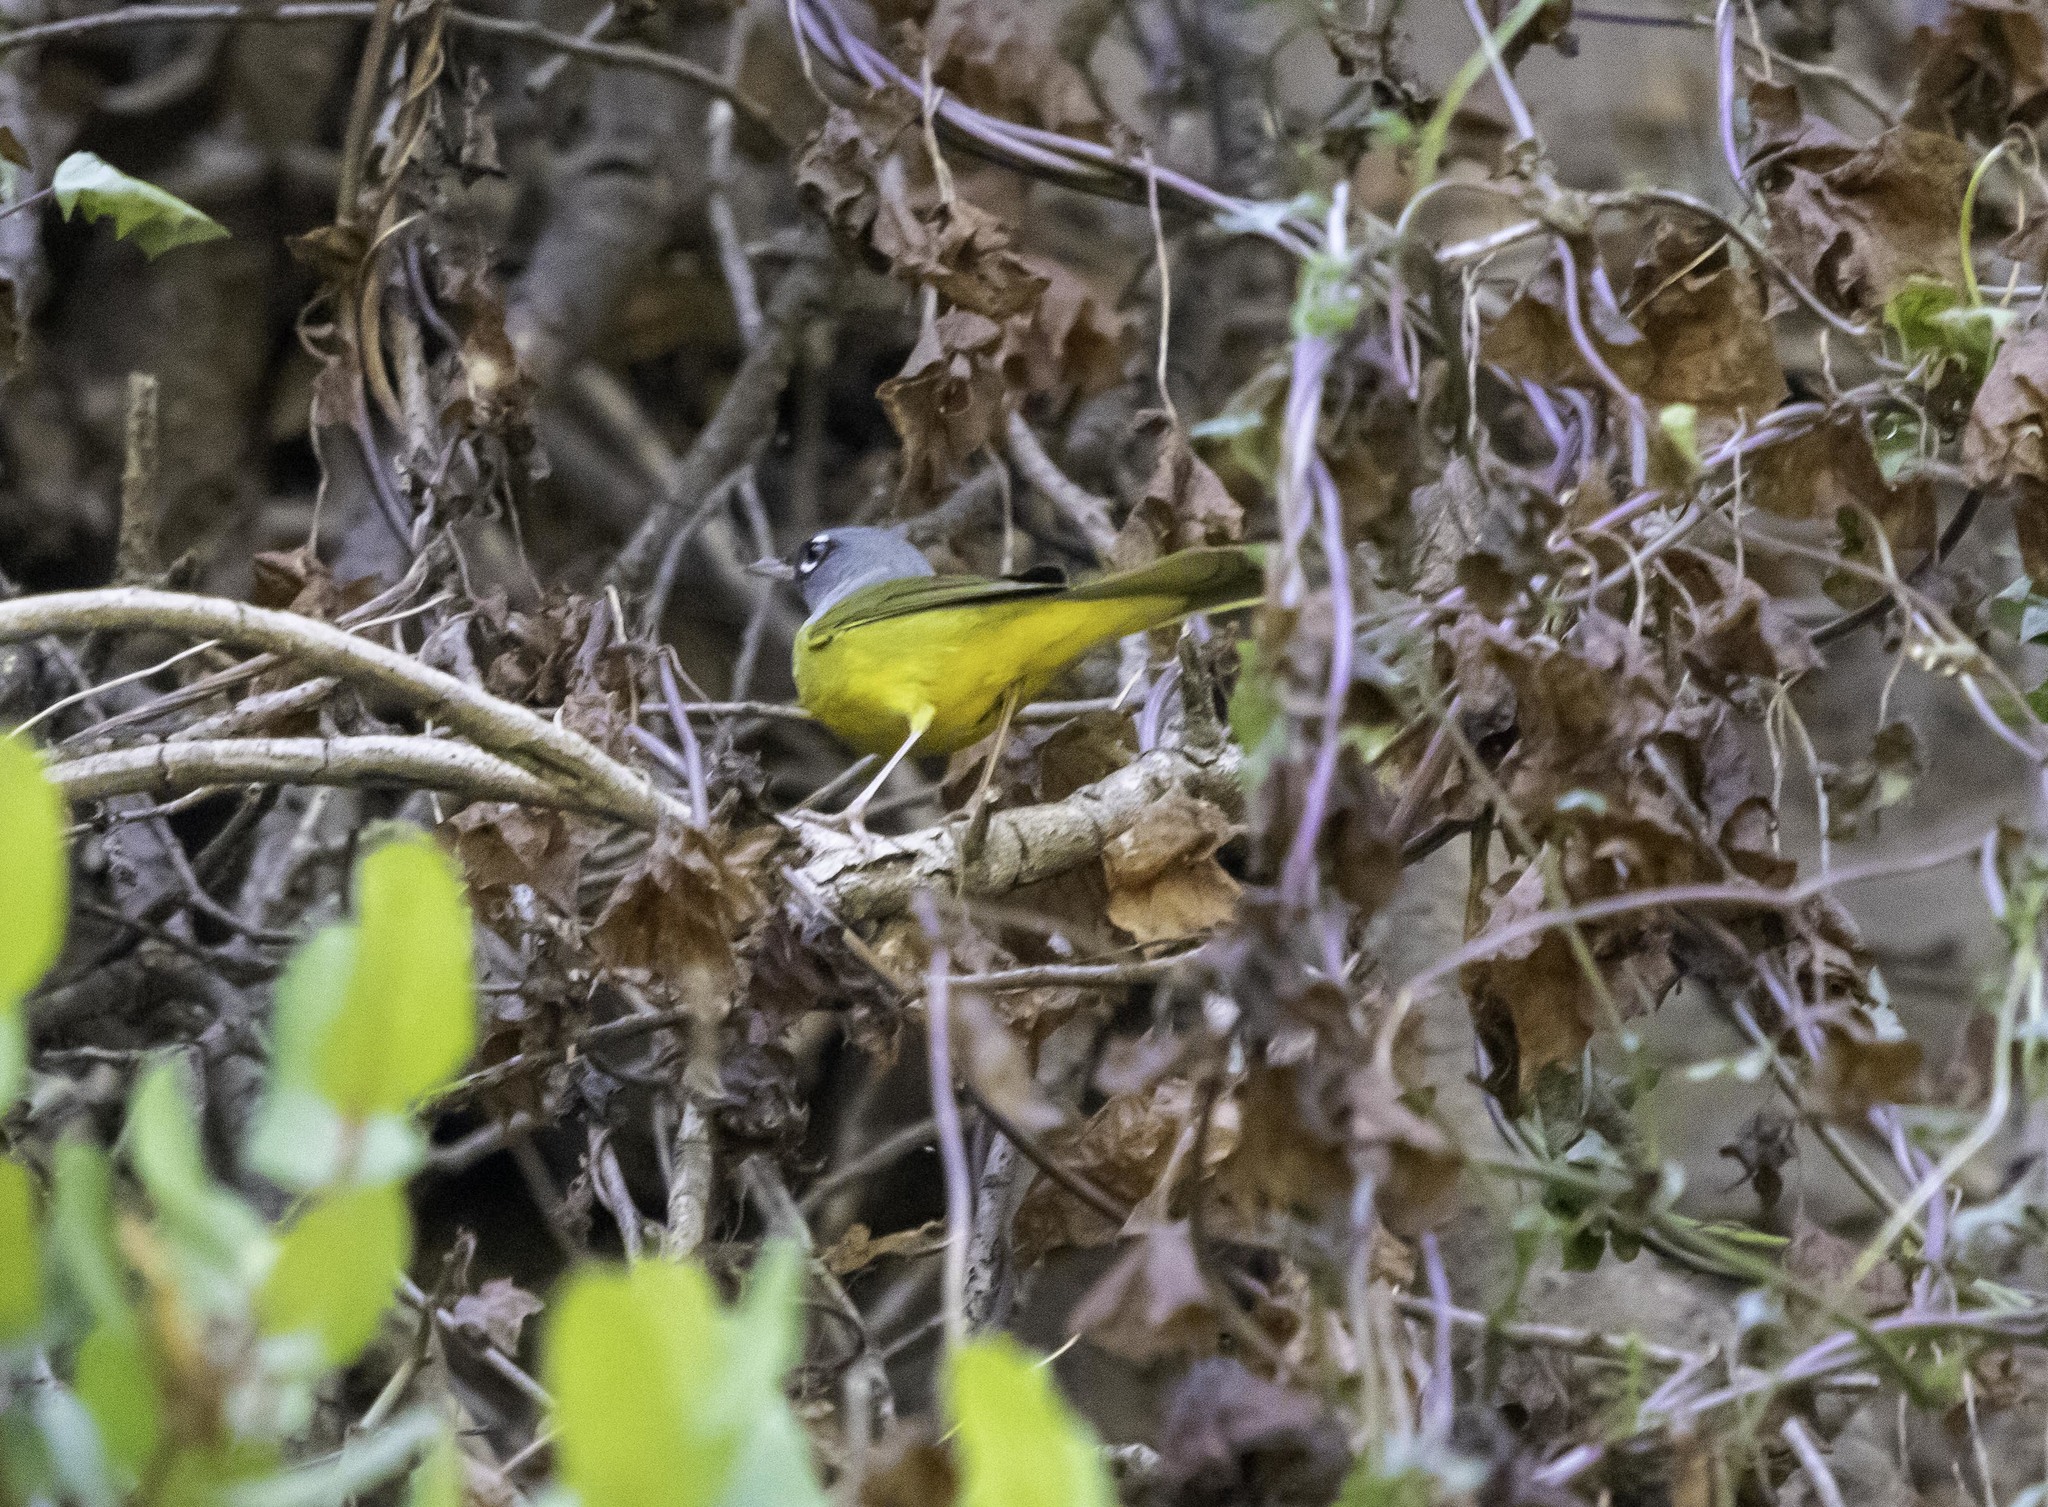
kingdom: Animalia
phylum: Chordata
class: Aves
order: Passeriformes
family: Parulidae
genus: Geothlypis
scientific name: Geothlypis tolmiei
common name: Macgillivray's warbler
